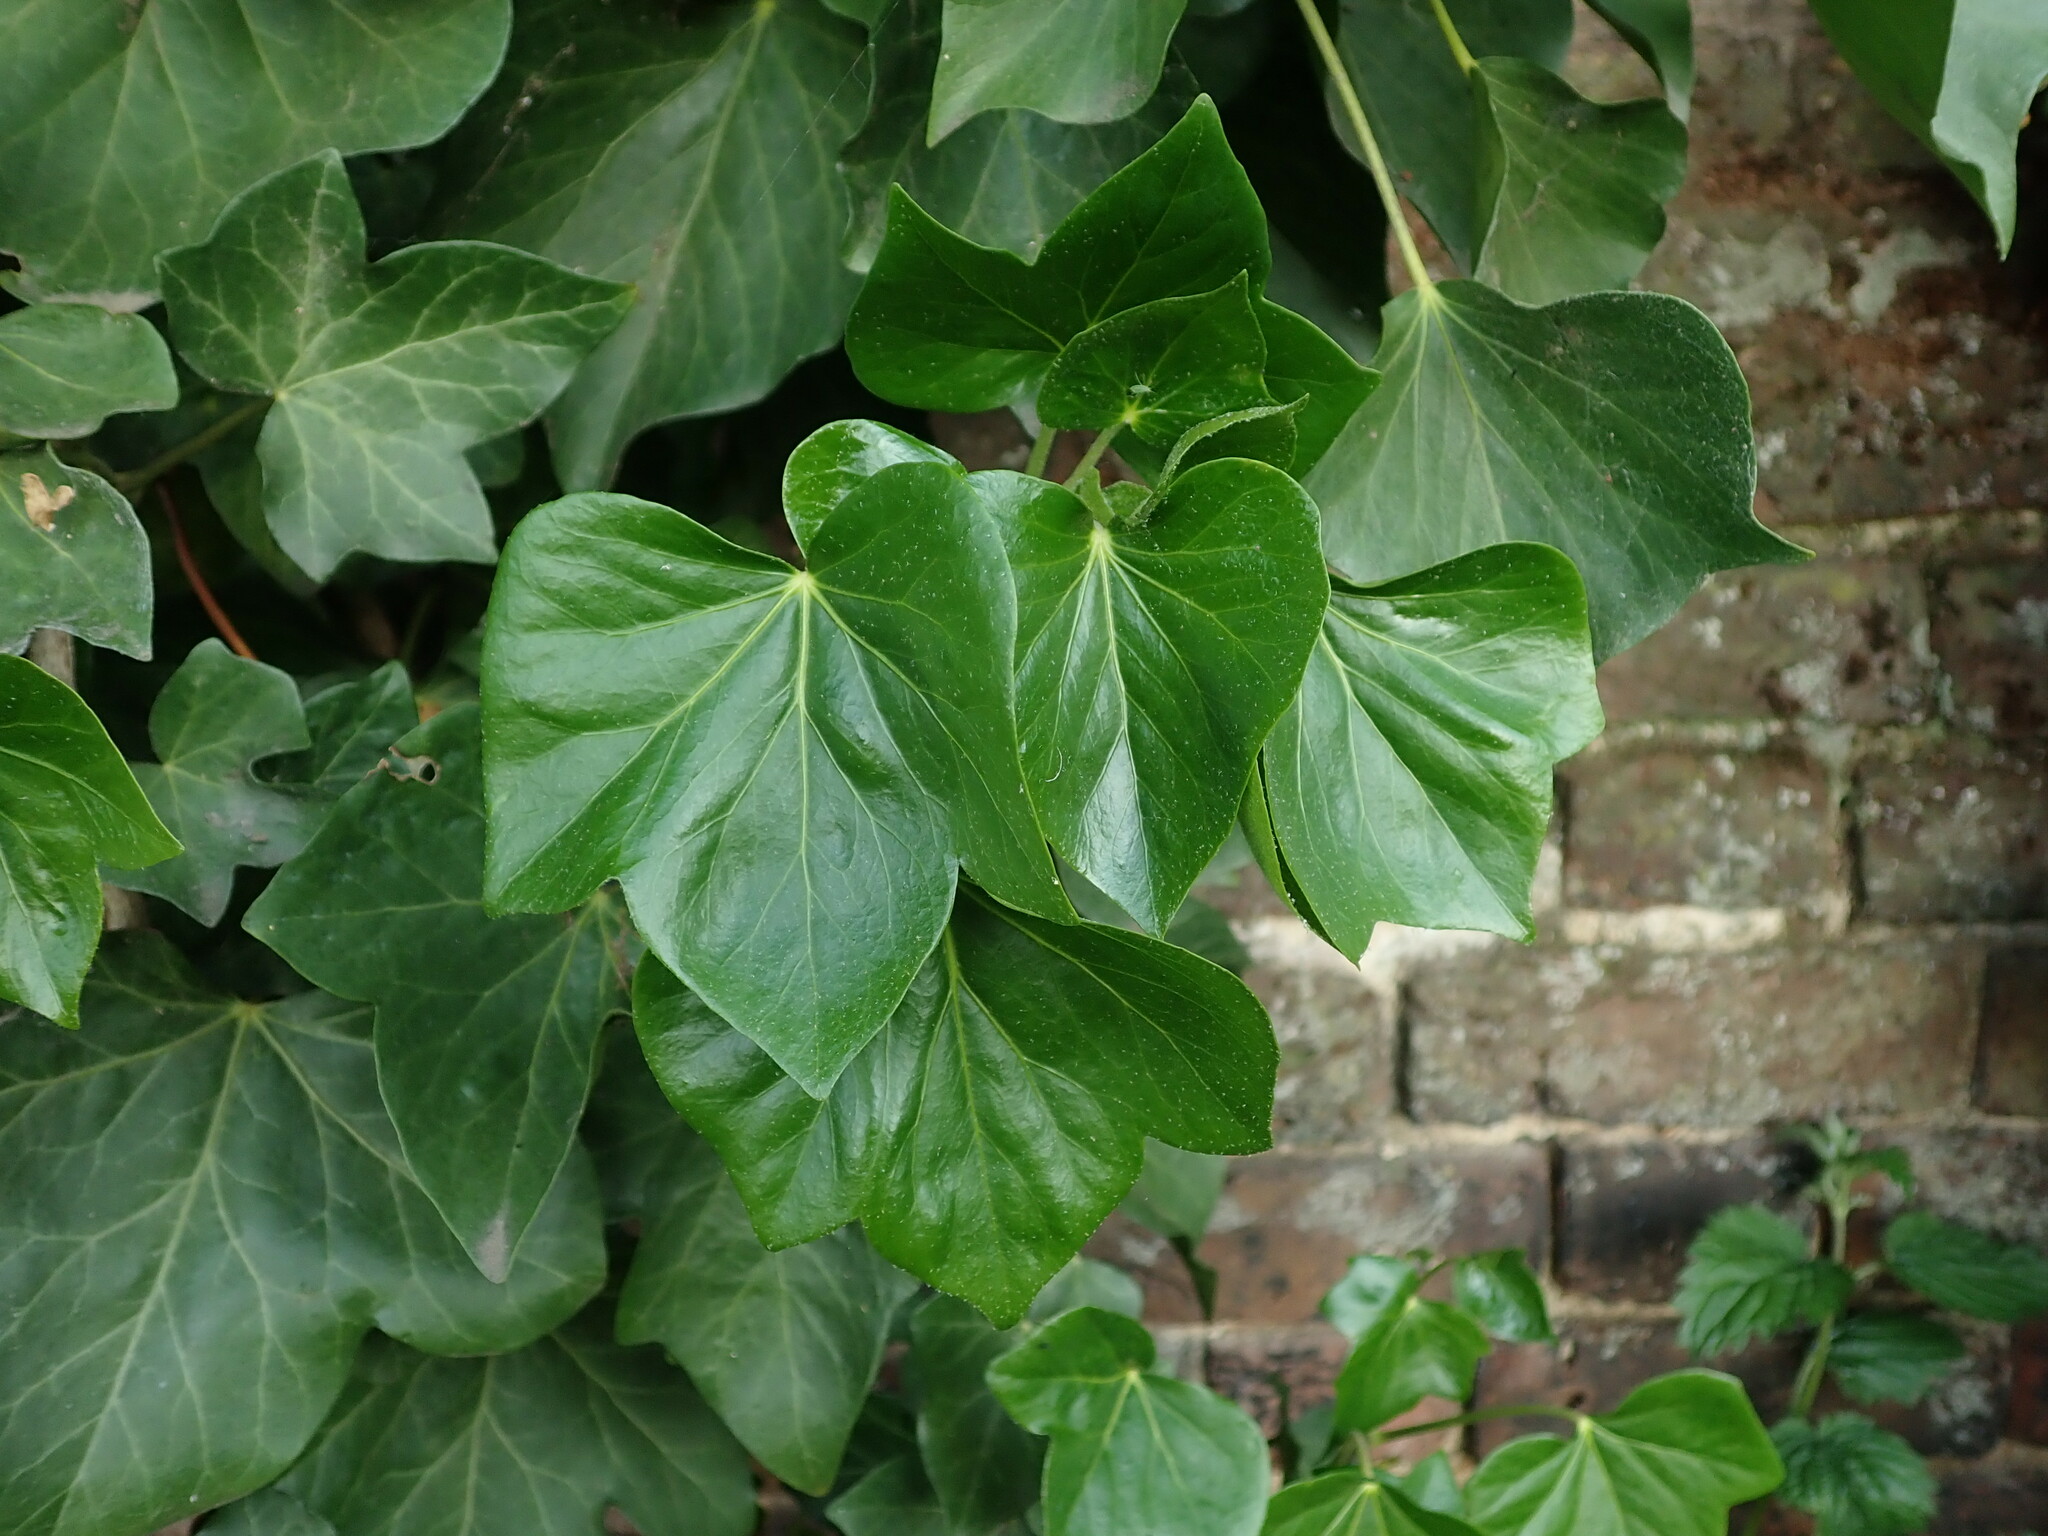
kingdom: Plantae
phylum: Tracheophyta
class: Magnoliopsida
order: Apiales
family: Araliaceae
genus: Hedera
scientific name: Hedera helix
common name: Ivy
